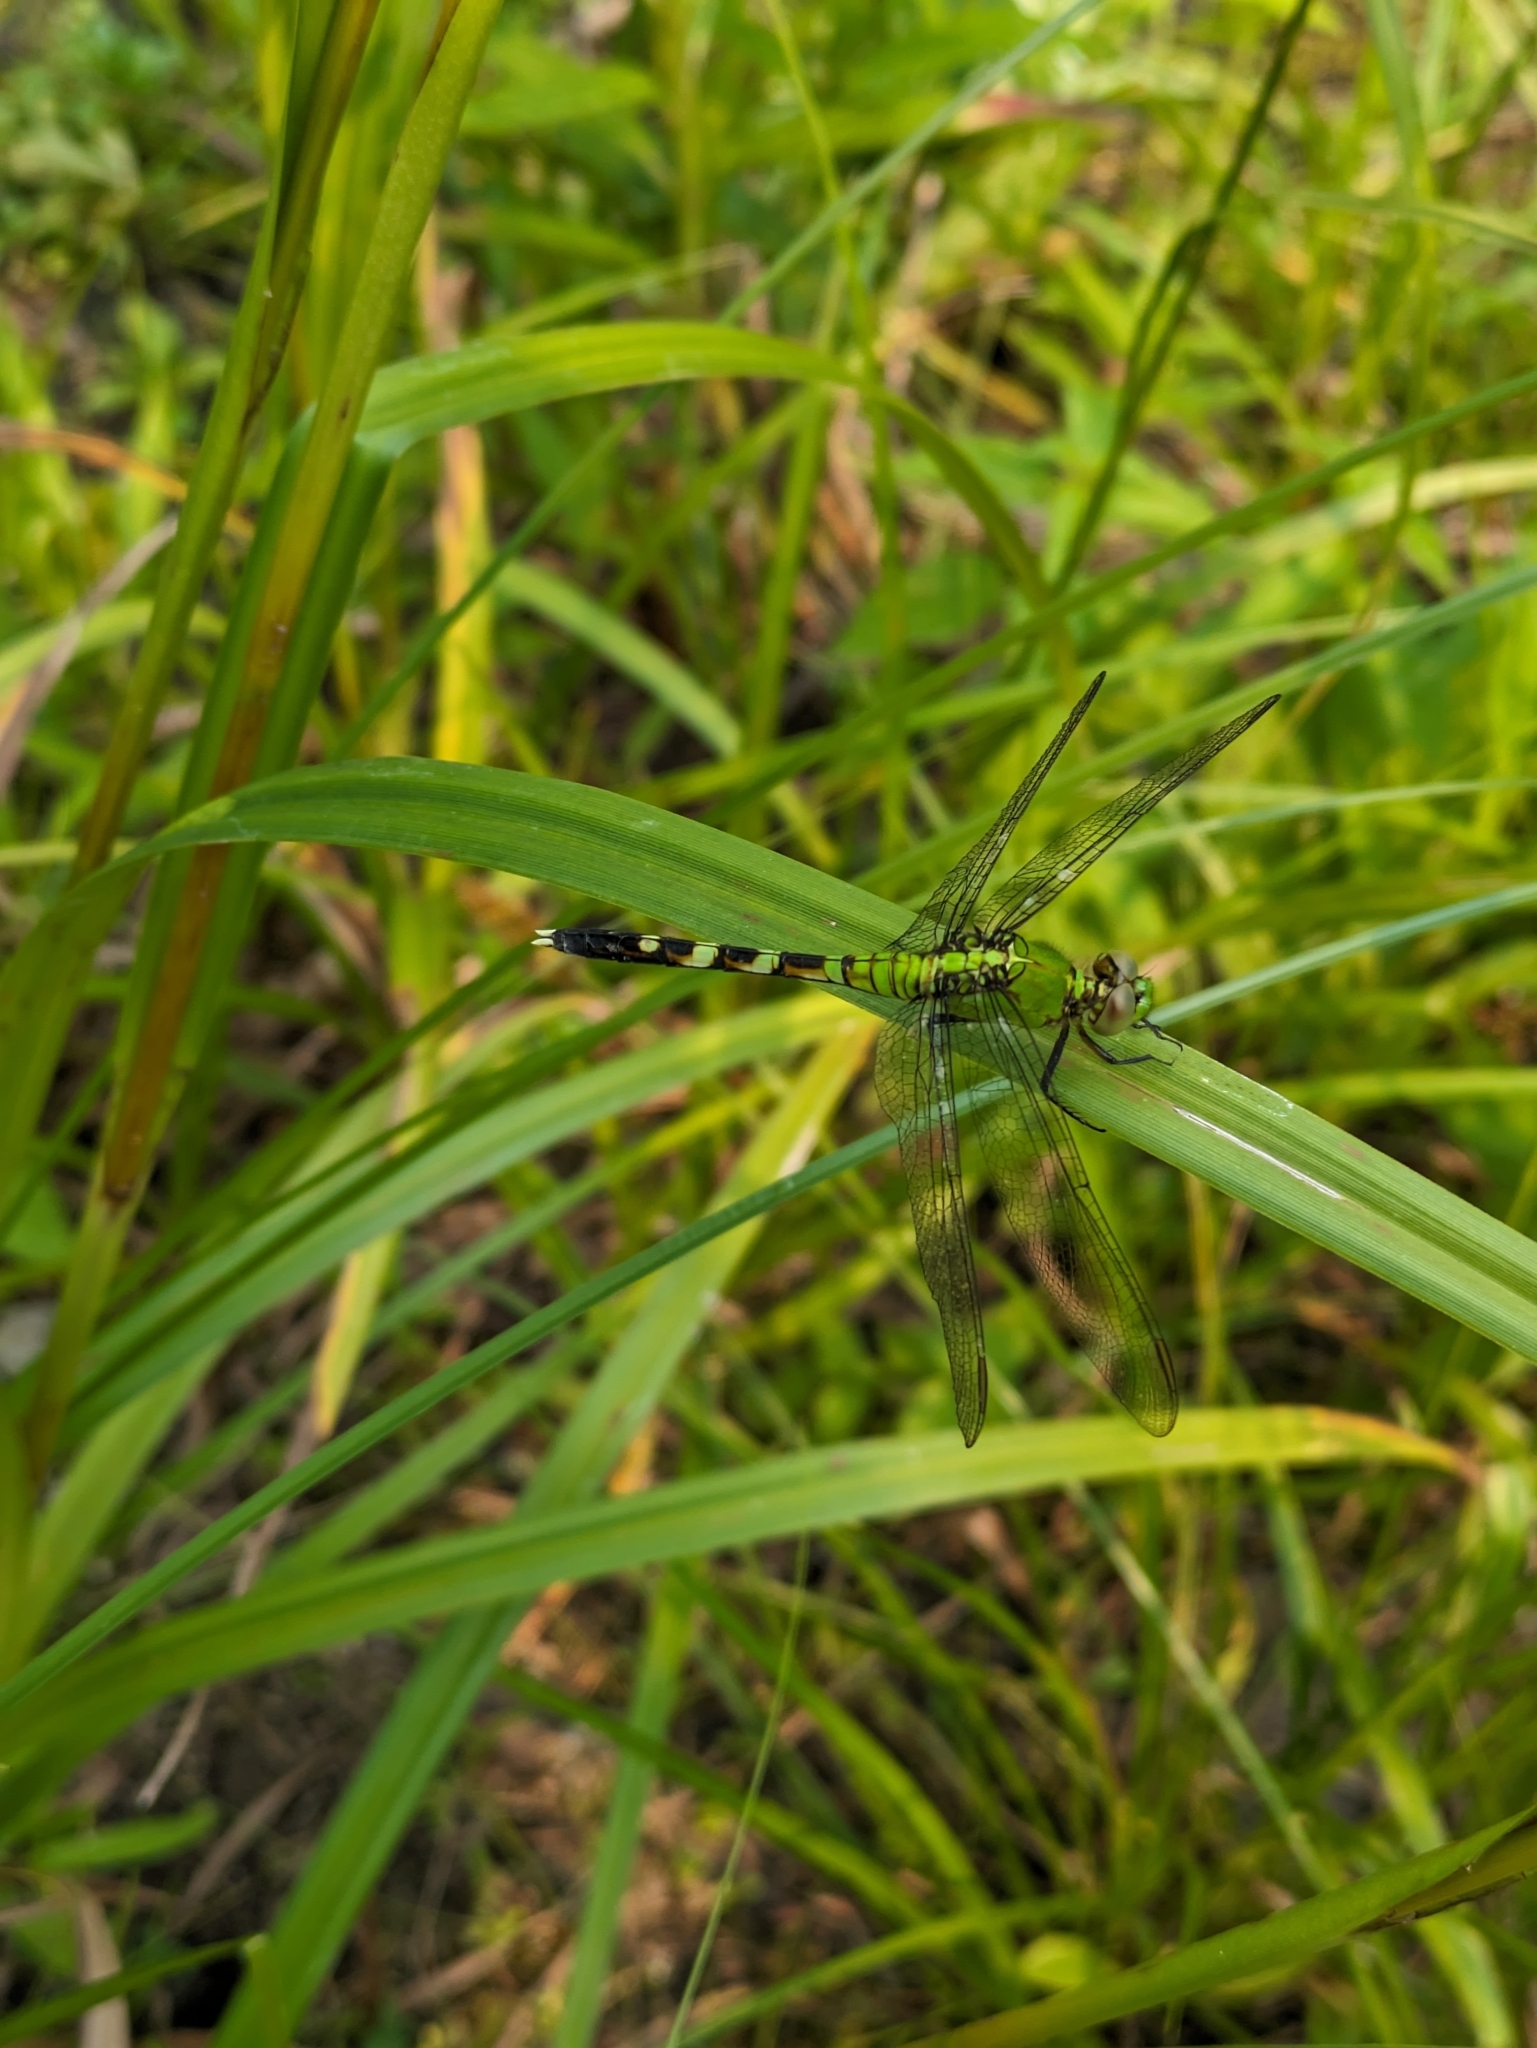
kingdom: Animalia
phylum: Arthropoda
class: Insecta
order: Odonata
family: Libellulidae
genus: Erythemis
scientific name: Erythemis simplicicollis
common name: Eastern pondhawk
